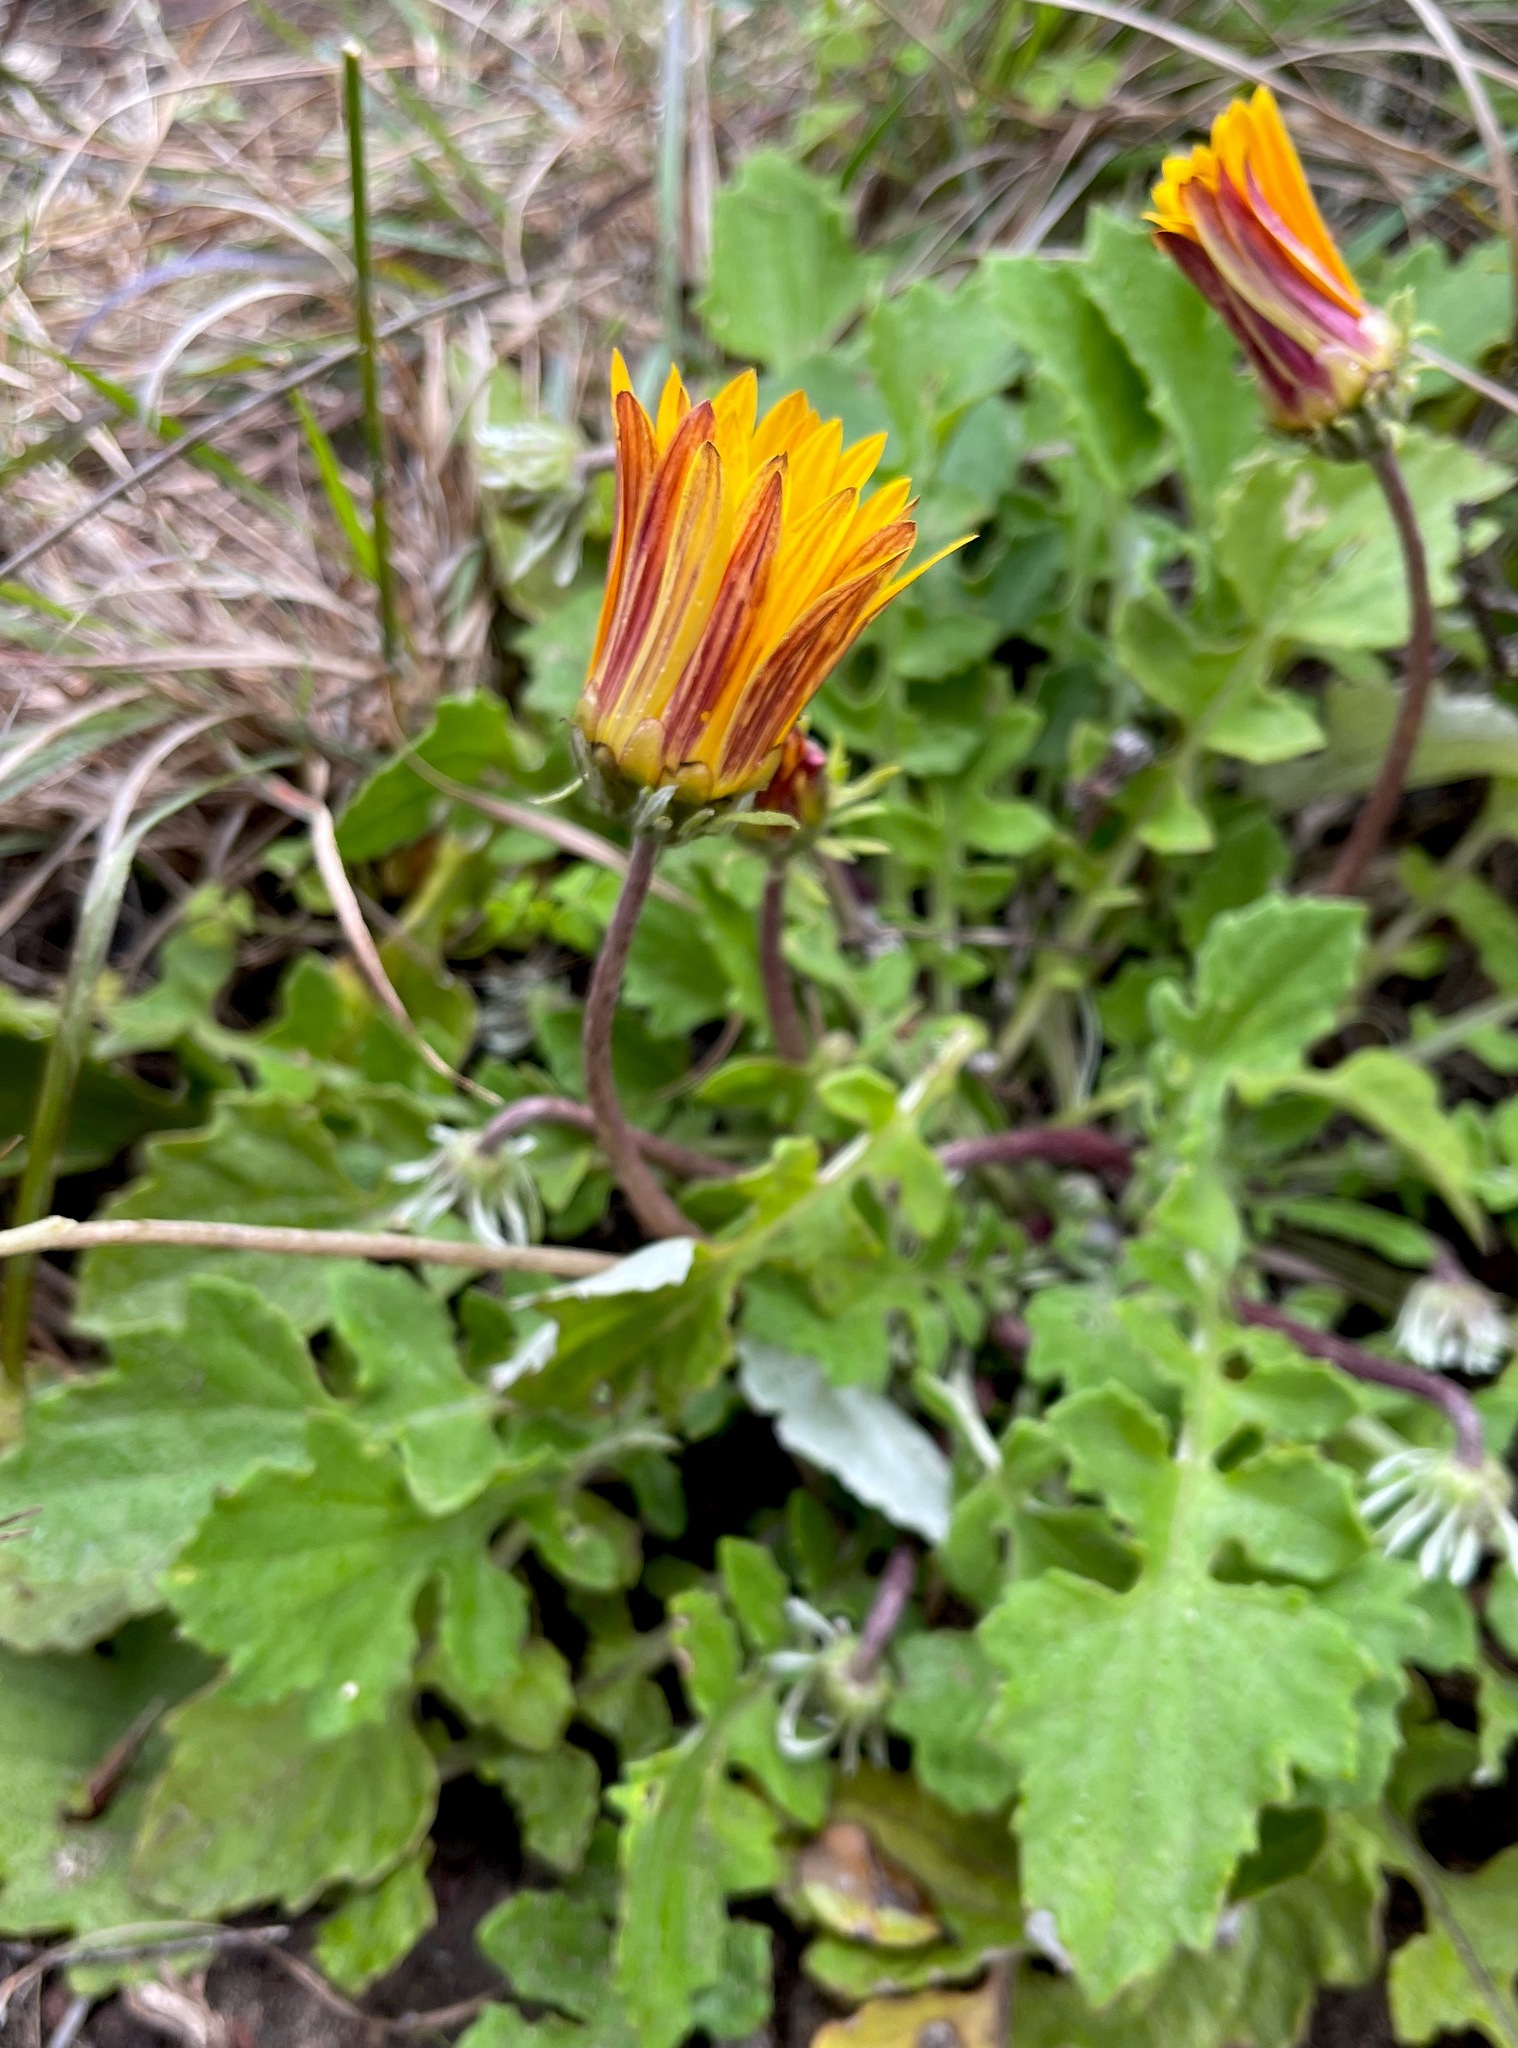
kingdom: Plantae
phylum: Tracheophyta
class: Magnoliopsida
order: Asterales
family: Asteraceae
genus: Arctotis
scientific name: Arctotis acaulis
